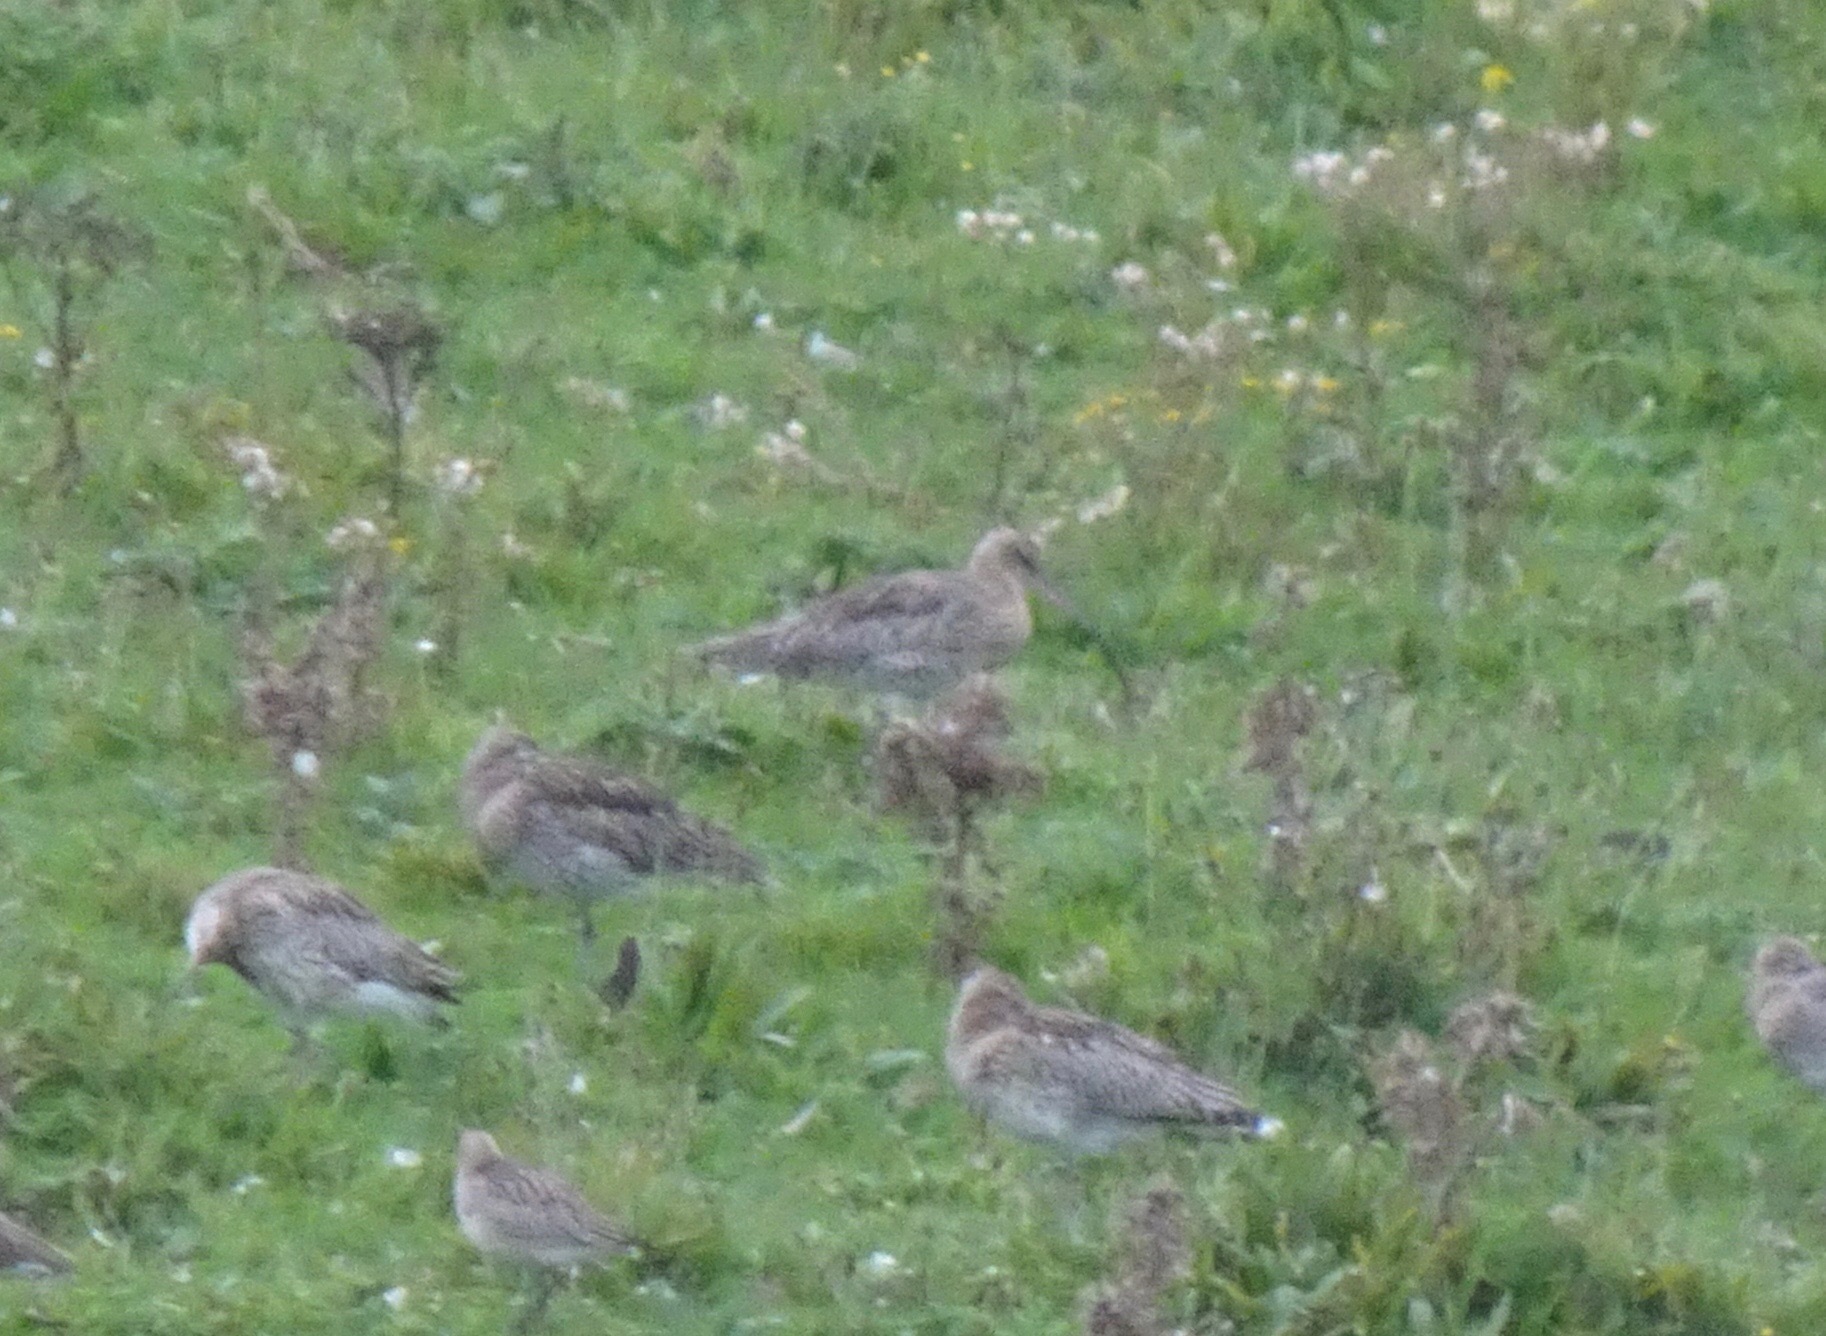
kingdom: Animalia
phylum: Chordata
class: Aves
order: Charadriiformes
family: Scolopacidae
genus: Numenius
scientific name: Numenius arquata
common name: Eurasian curlew
